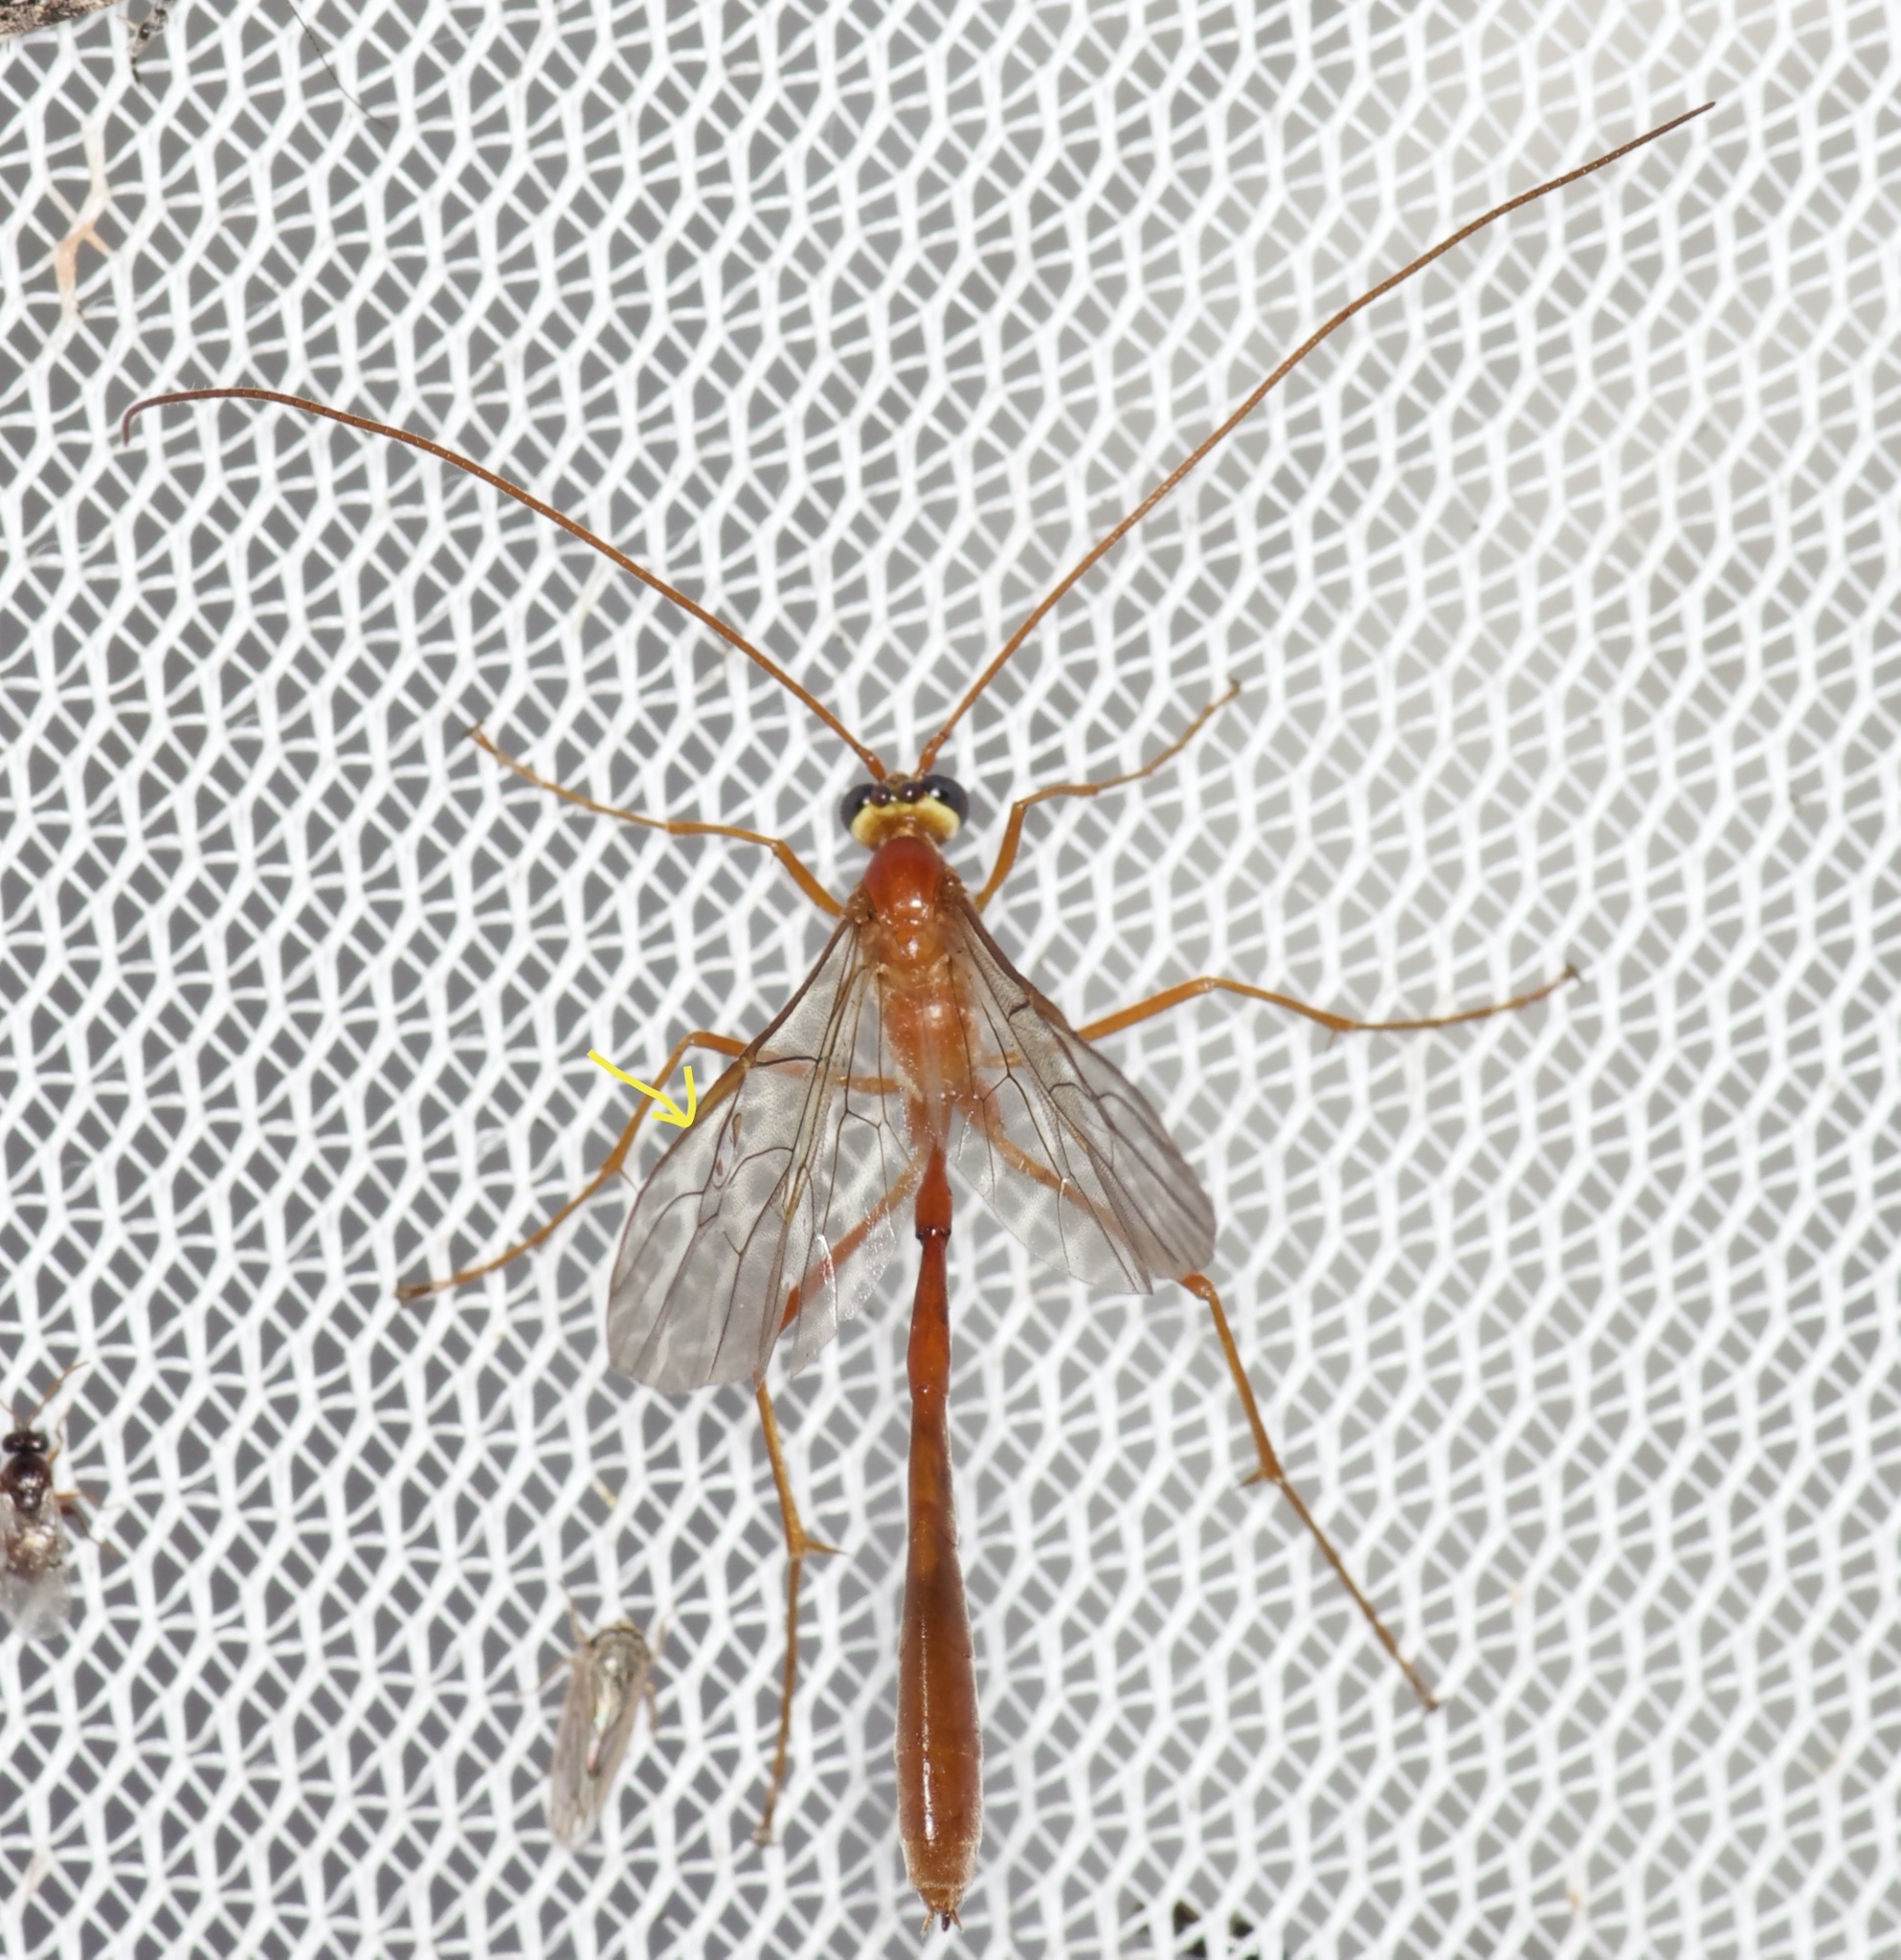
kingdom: Animalia
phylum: Arthropoda
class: Insecta
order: Hymenoptera
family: Ichneumonidae
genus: Enicospilus
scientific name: Enicospilus purgatus
